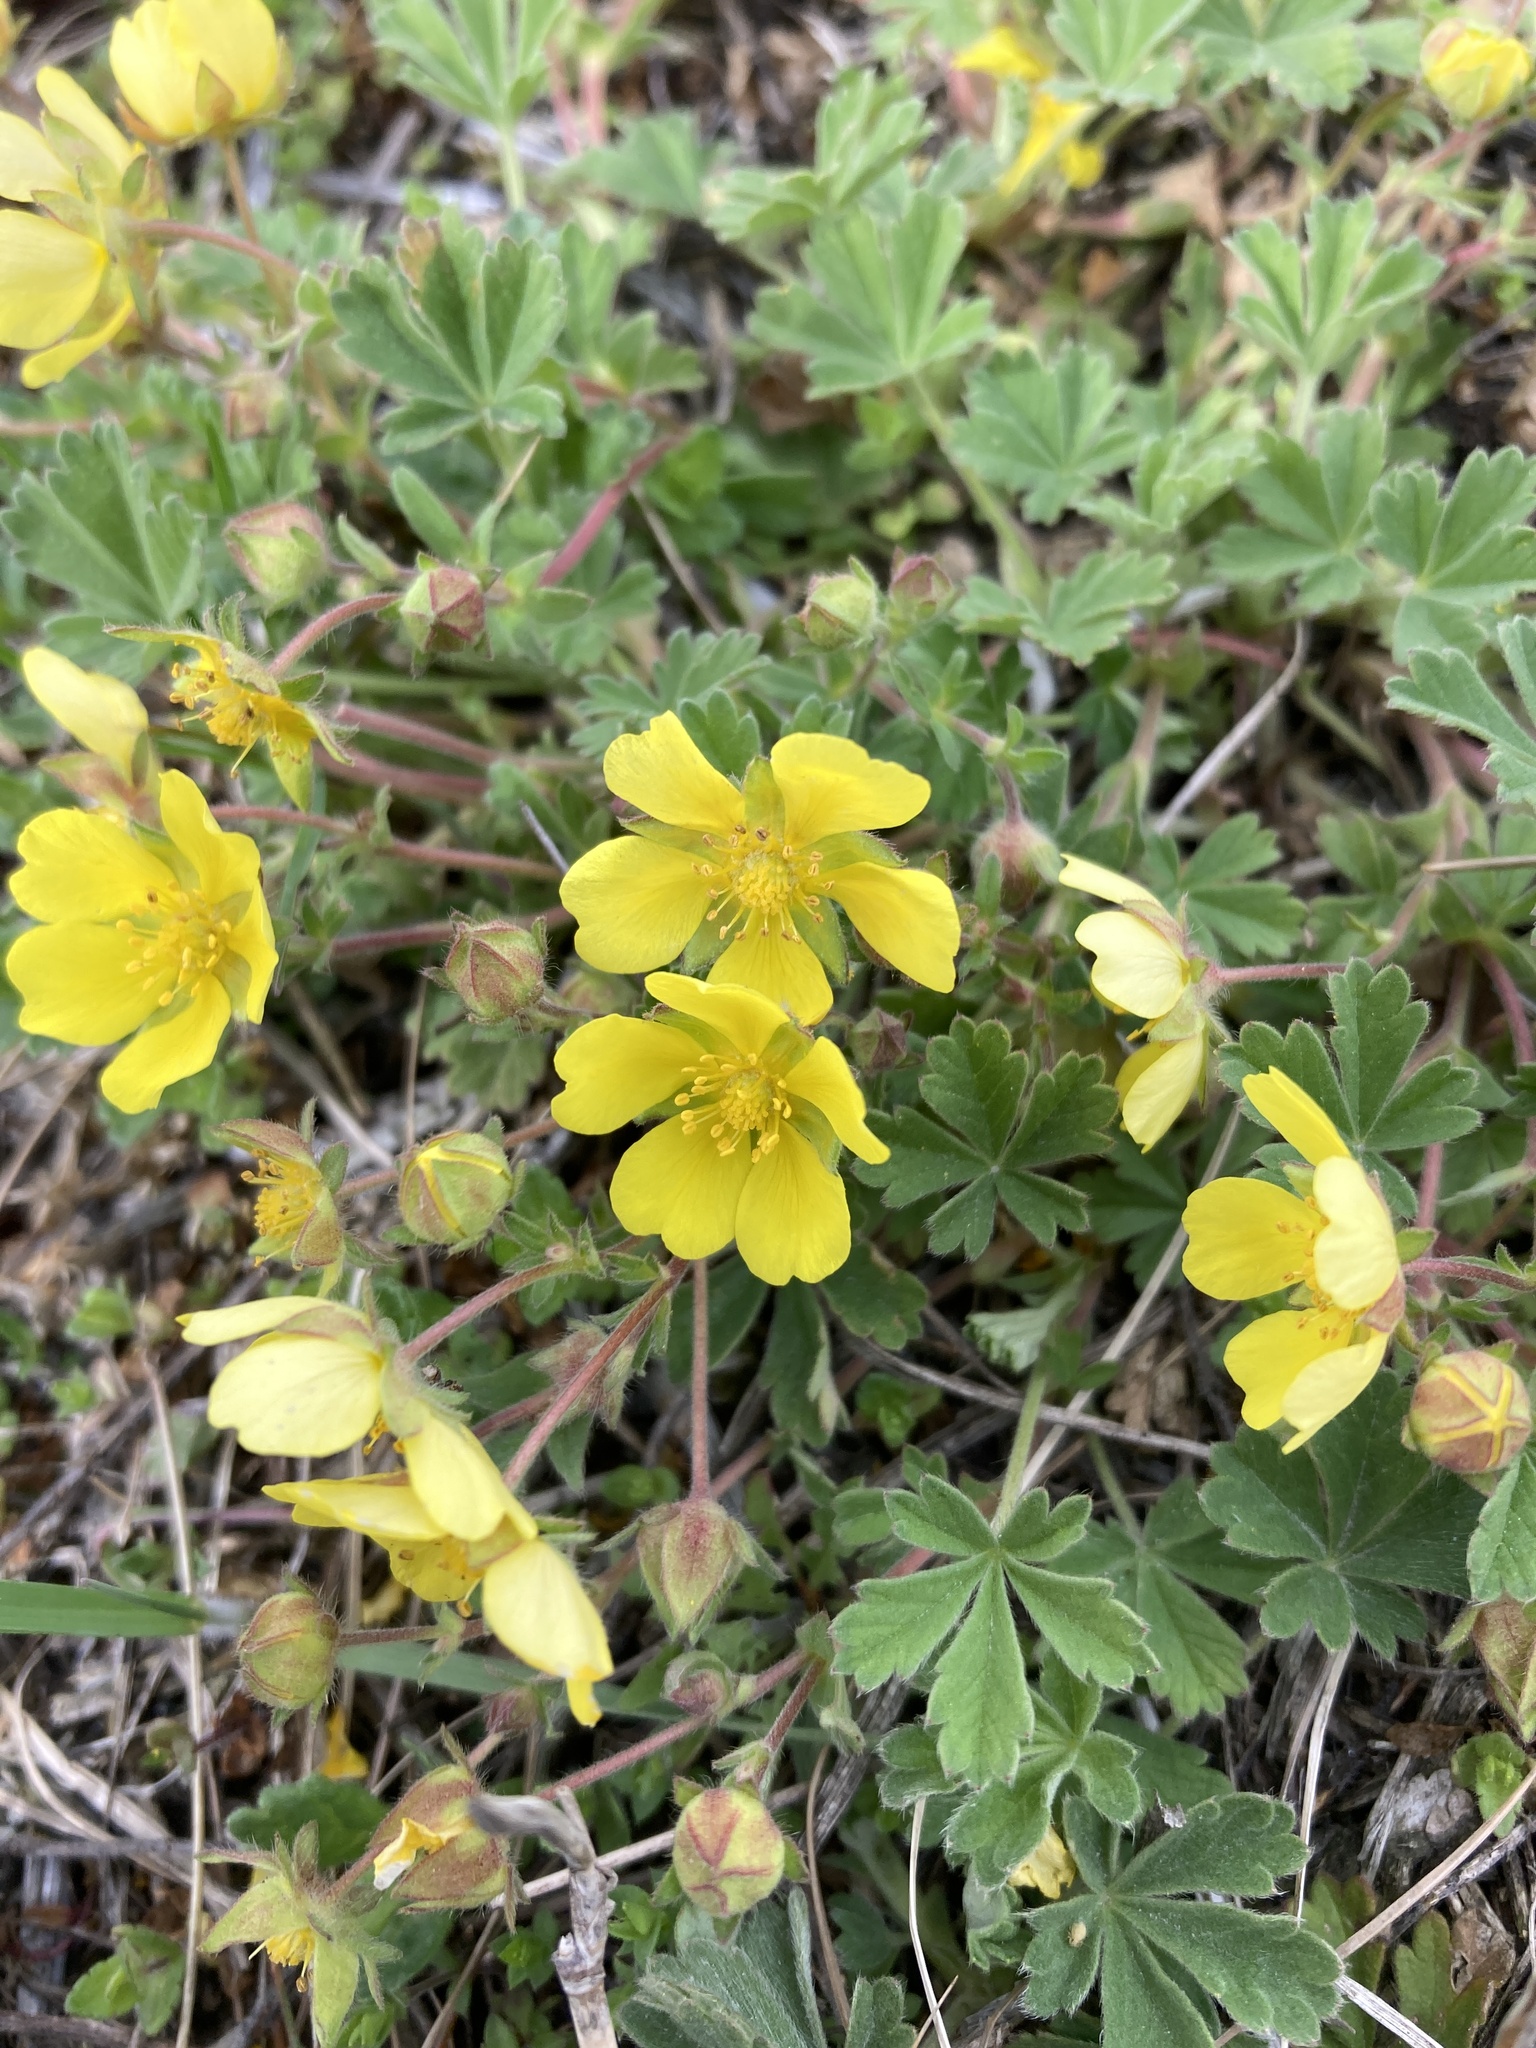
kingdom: Plantae
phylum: Tracheophyta
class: Magnoliopsida
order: Rosales
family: Rosaceae
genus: Potentilla
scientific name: Potentilla incana
